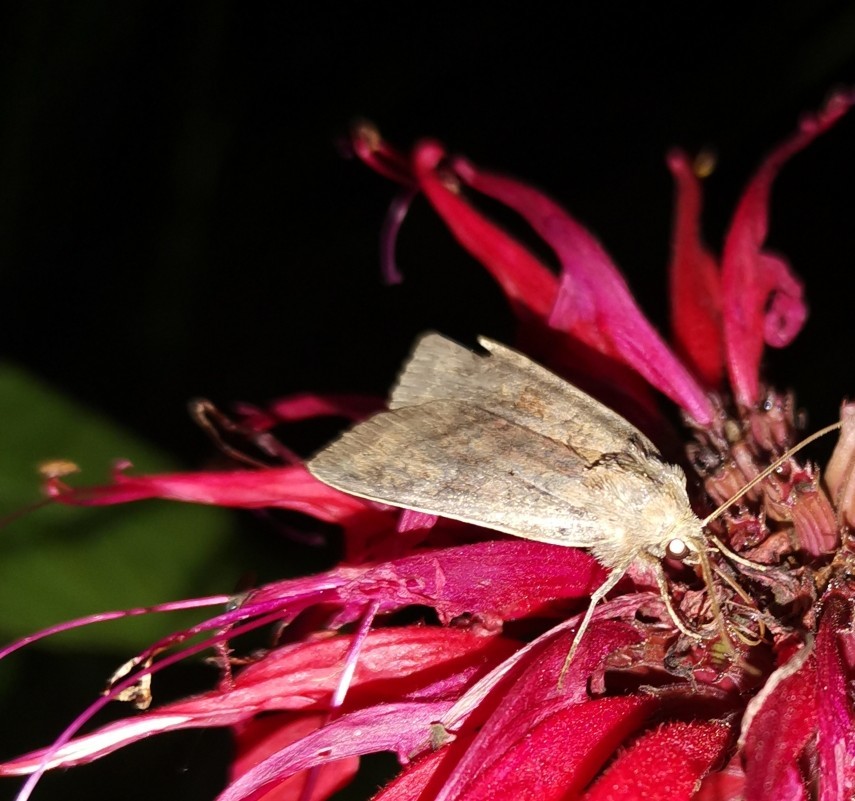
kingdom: Animalia
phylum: Arthropoda
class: Insecta
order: Lepidoptera
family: Noctuidae
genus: Diarsia
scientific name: Diarsia dahlii
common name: Barred chestnut
